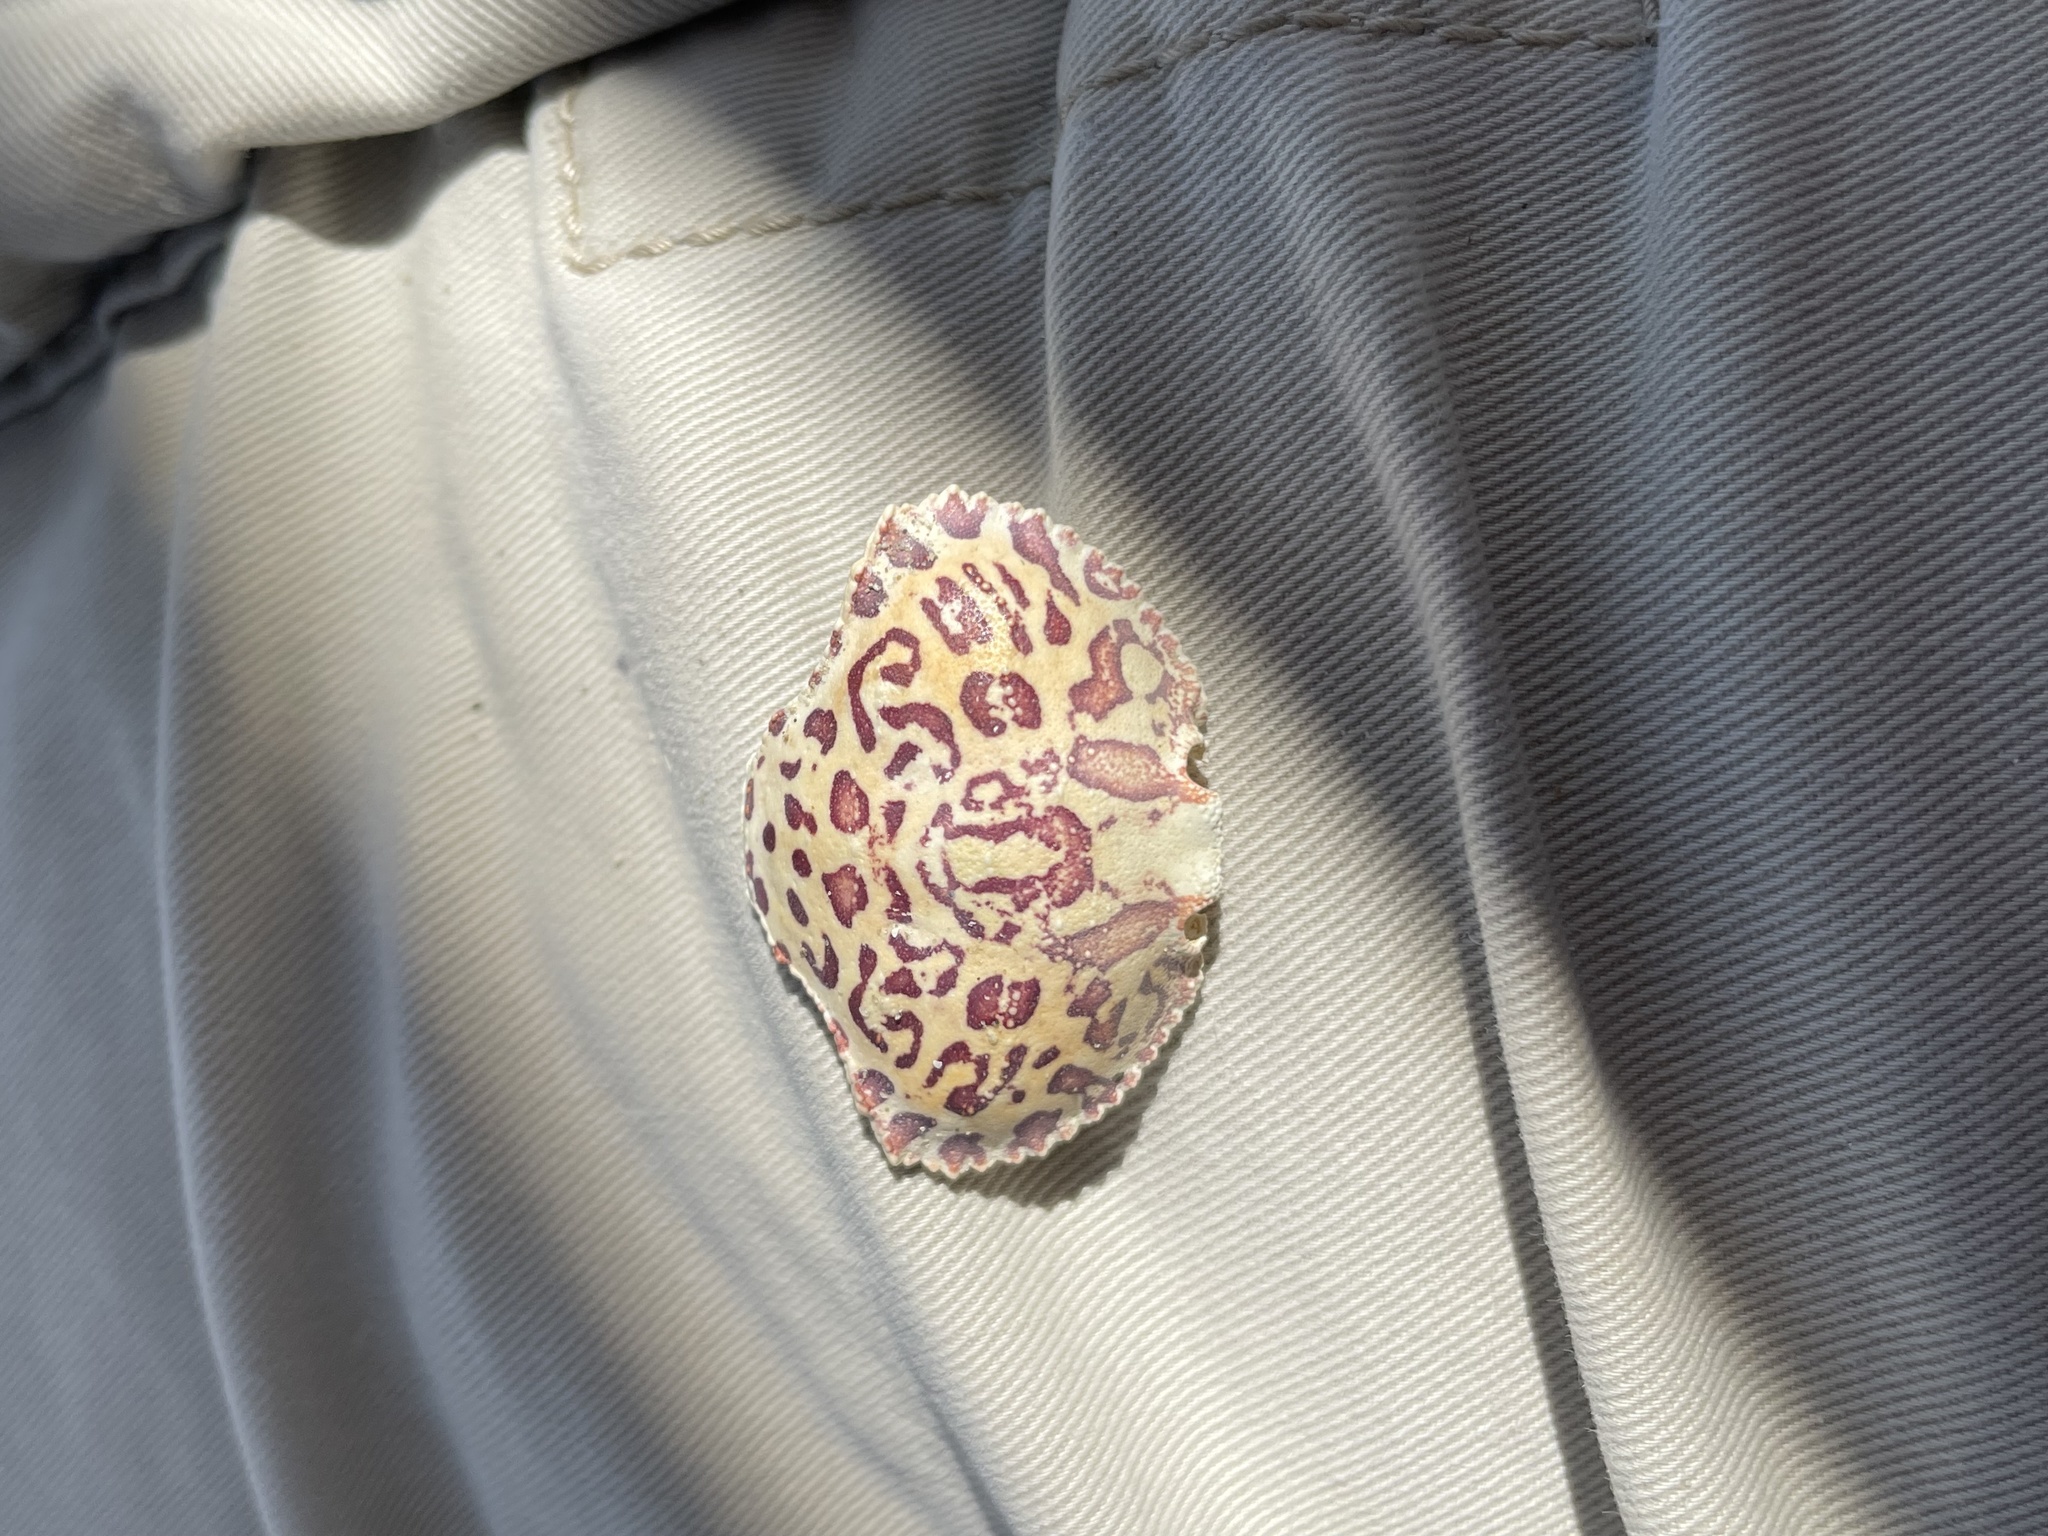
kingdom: Animalia
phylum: Arthropoda
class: Malacostraca
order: Decapoda
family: Aethridae
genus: Hepatus
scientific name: Hepatus epheliticus
